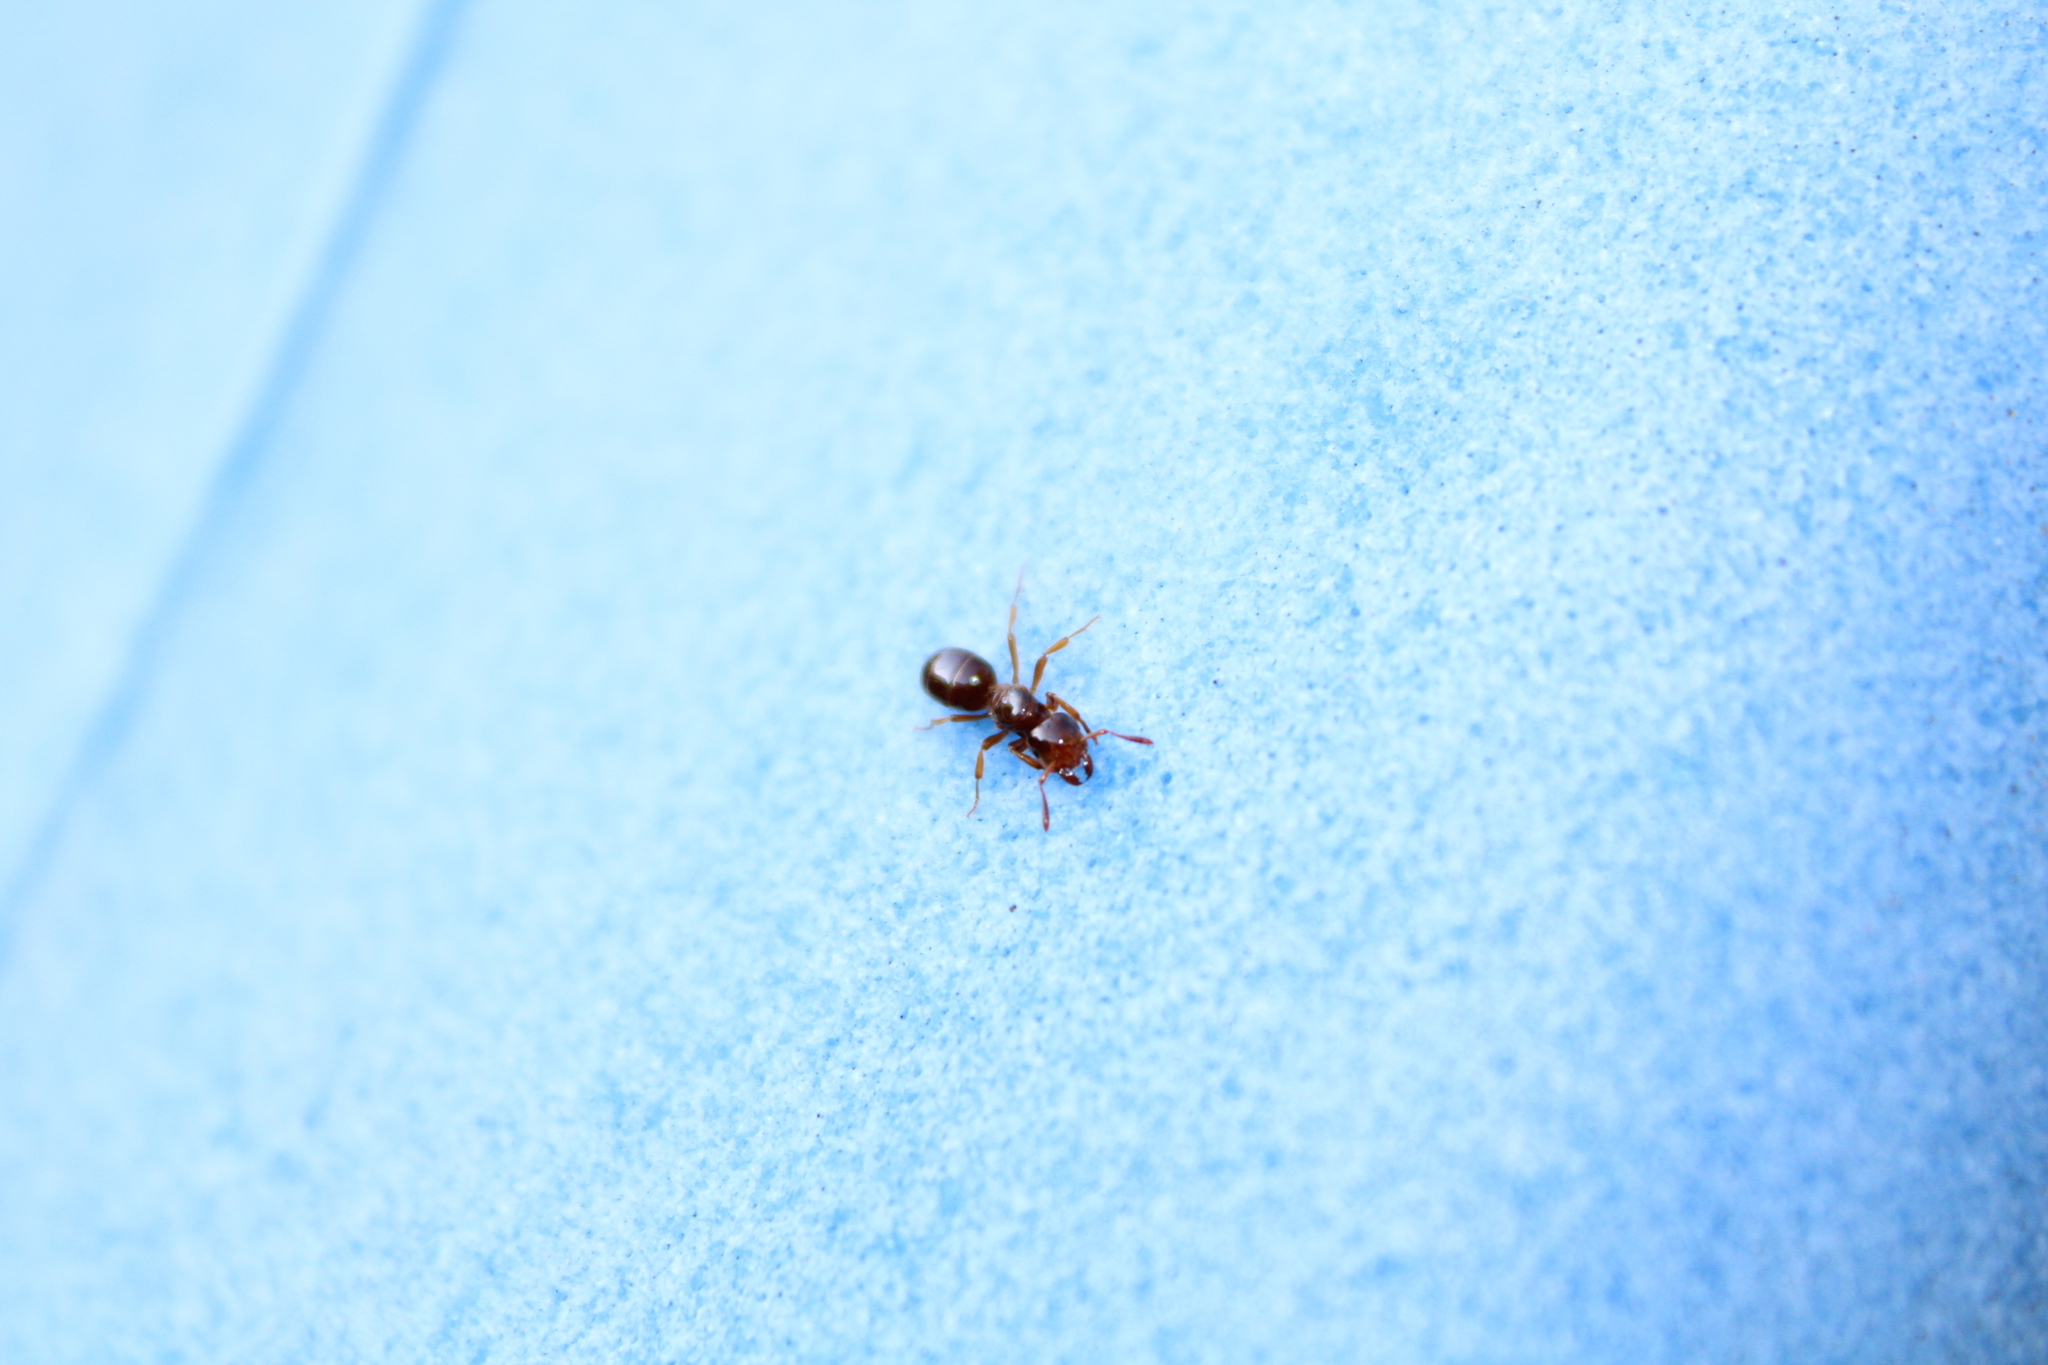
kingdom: Animalia
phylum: Arthropoda
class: Insecta
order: Hymenoptera
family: Formicidae
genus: Lasius
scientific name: Lasius claviger
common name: Common citronella ant
